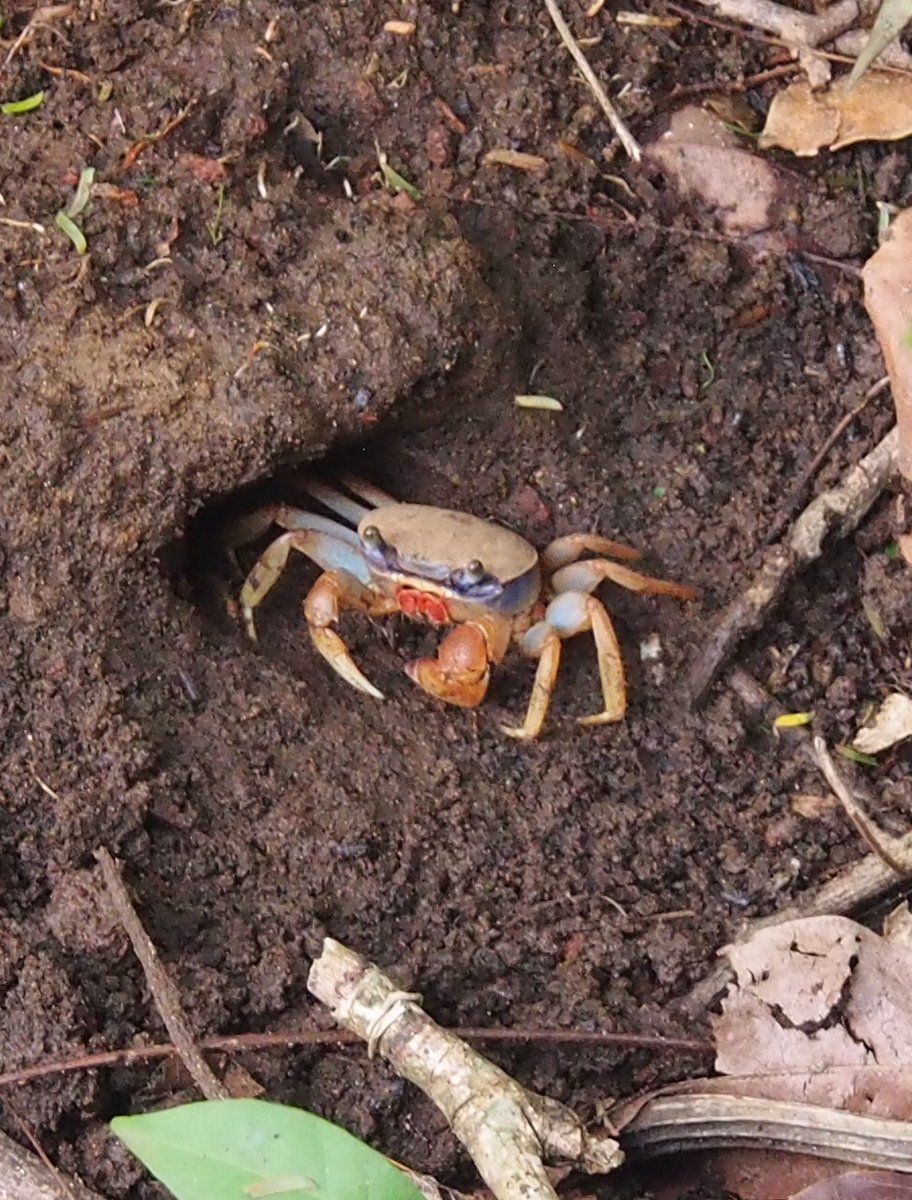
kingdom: Animalia
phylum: Arthropoda
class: Malacostraca
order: Decapoda
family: Gecarcinidae
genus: Cardisoma
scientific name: Cardisoma guanhumi
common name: Great land crab
